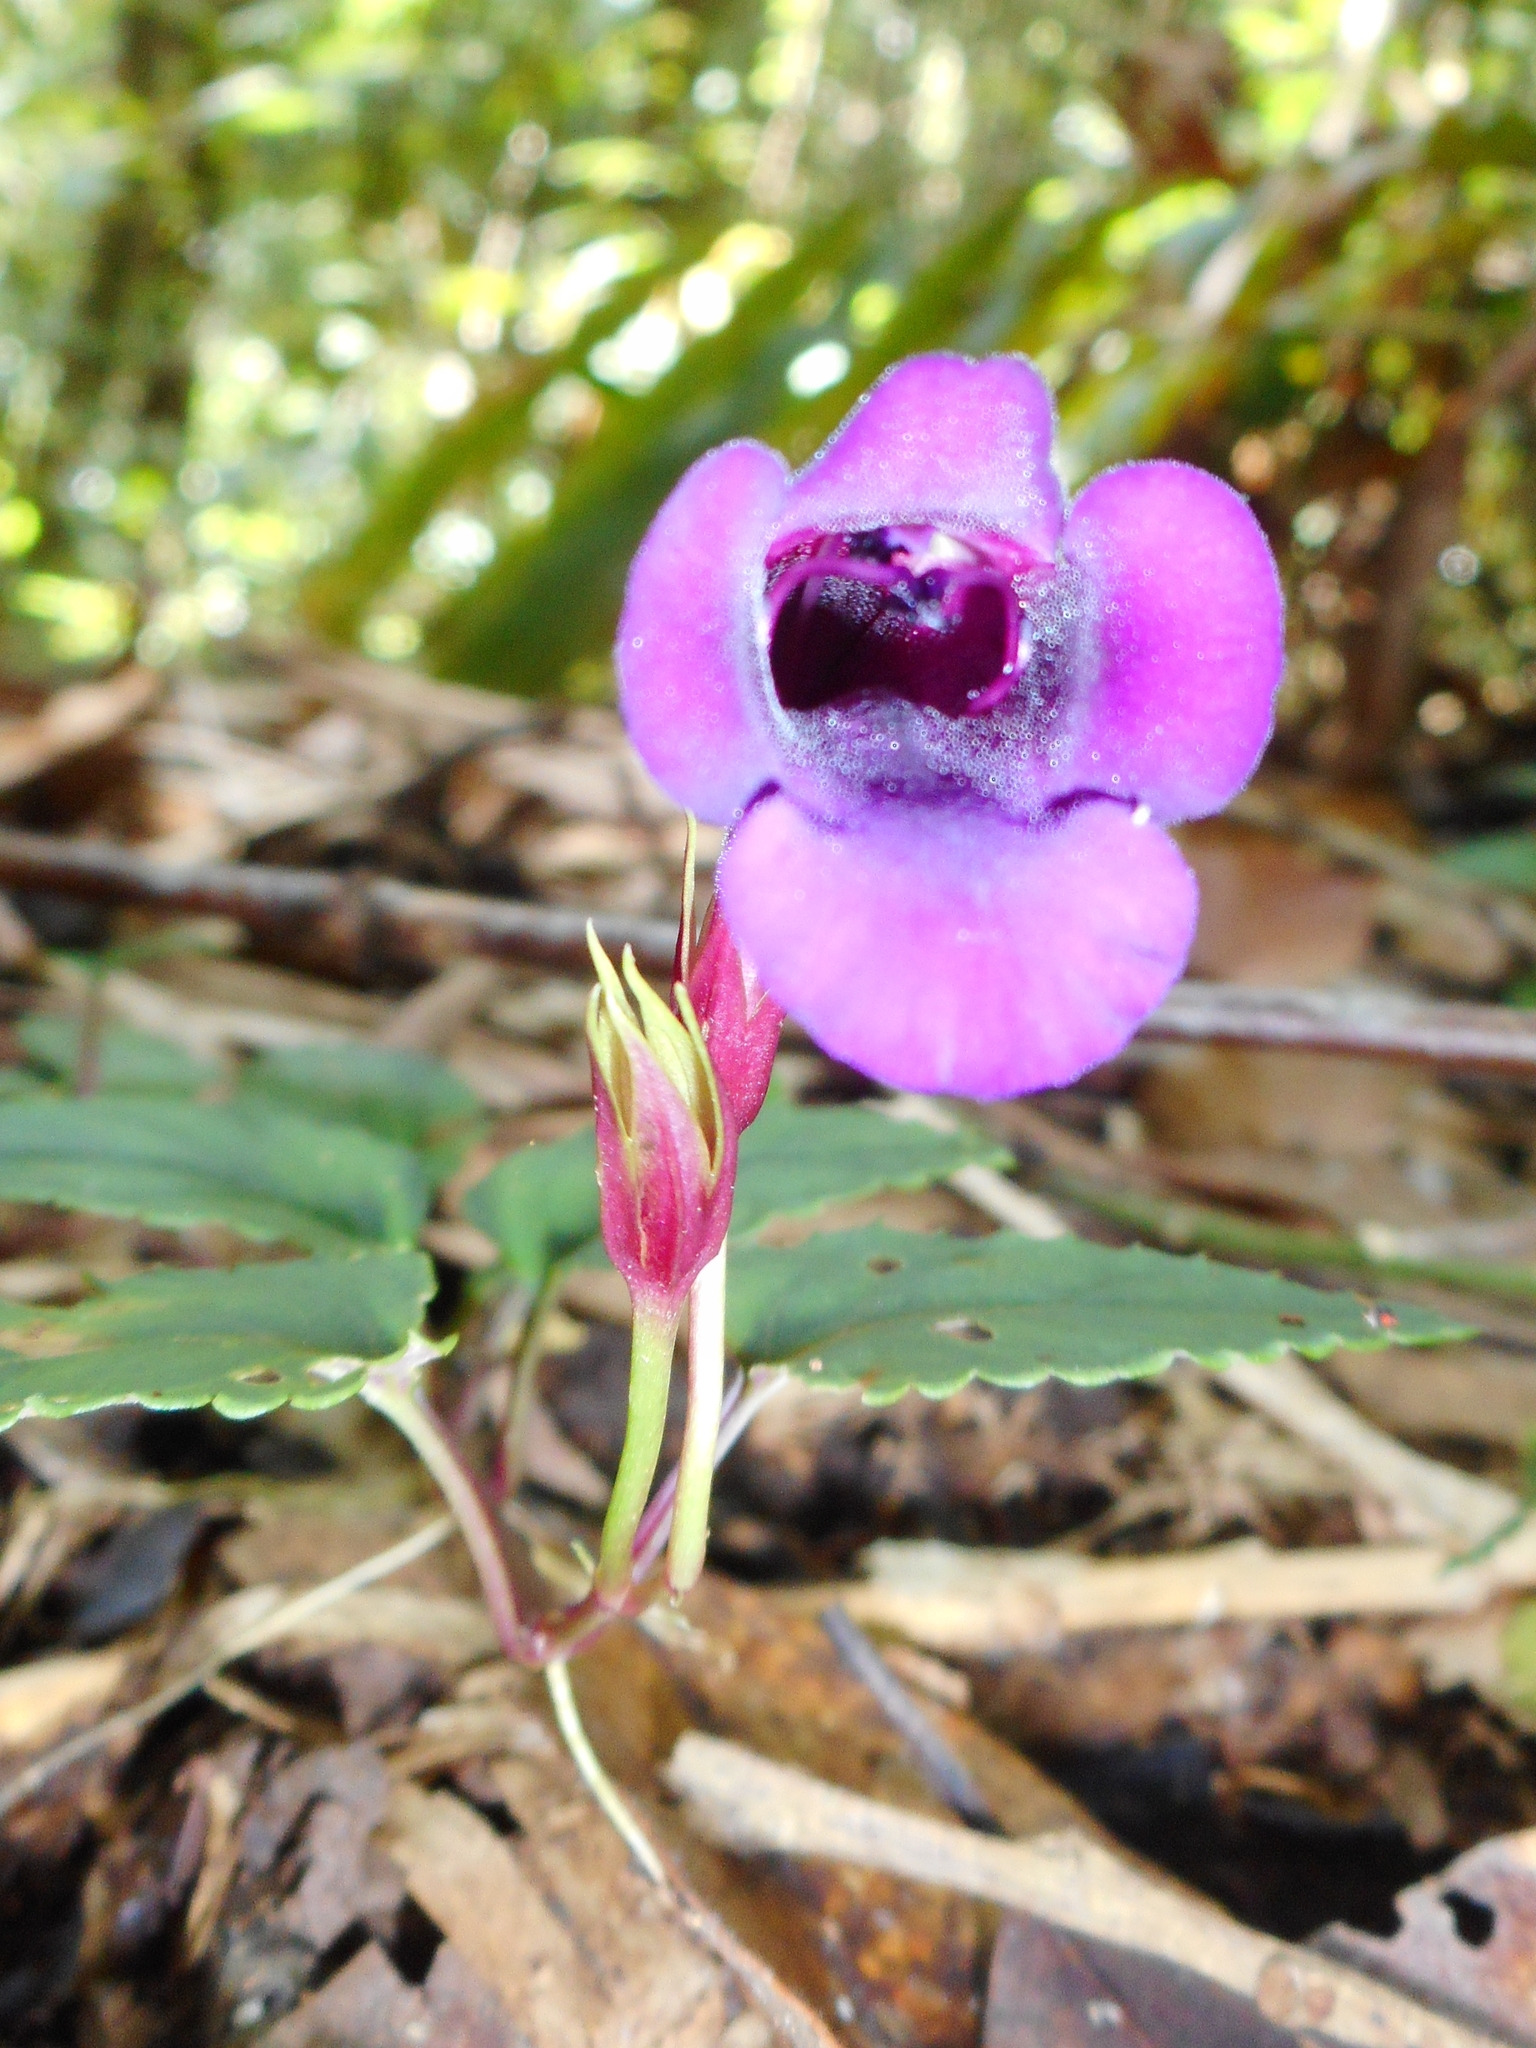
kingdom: Plantae
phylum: Tracheophyta
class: Magnoliopsida
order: Lamiales
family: Linderniaceae
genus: Schizotorenia
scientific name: Schizotorenia atropurpurea
